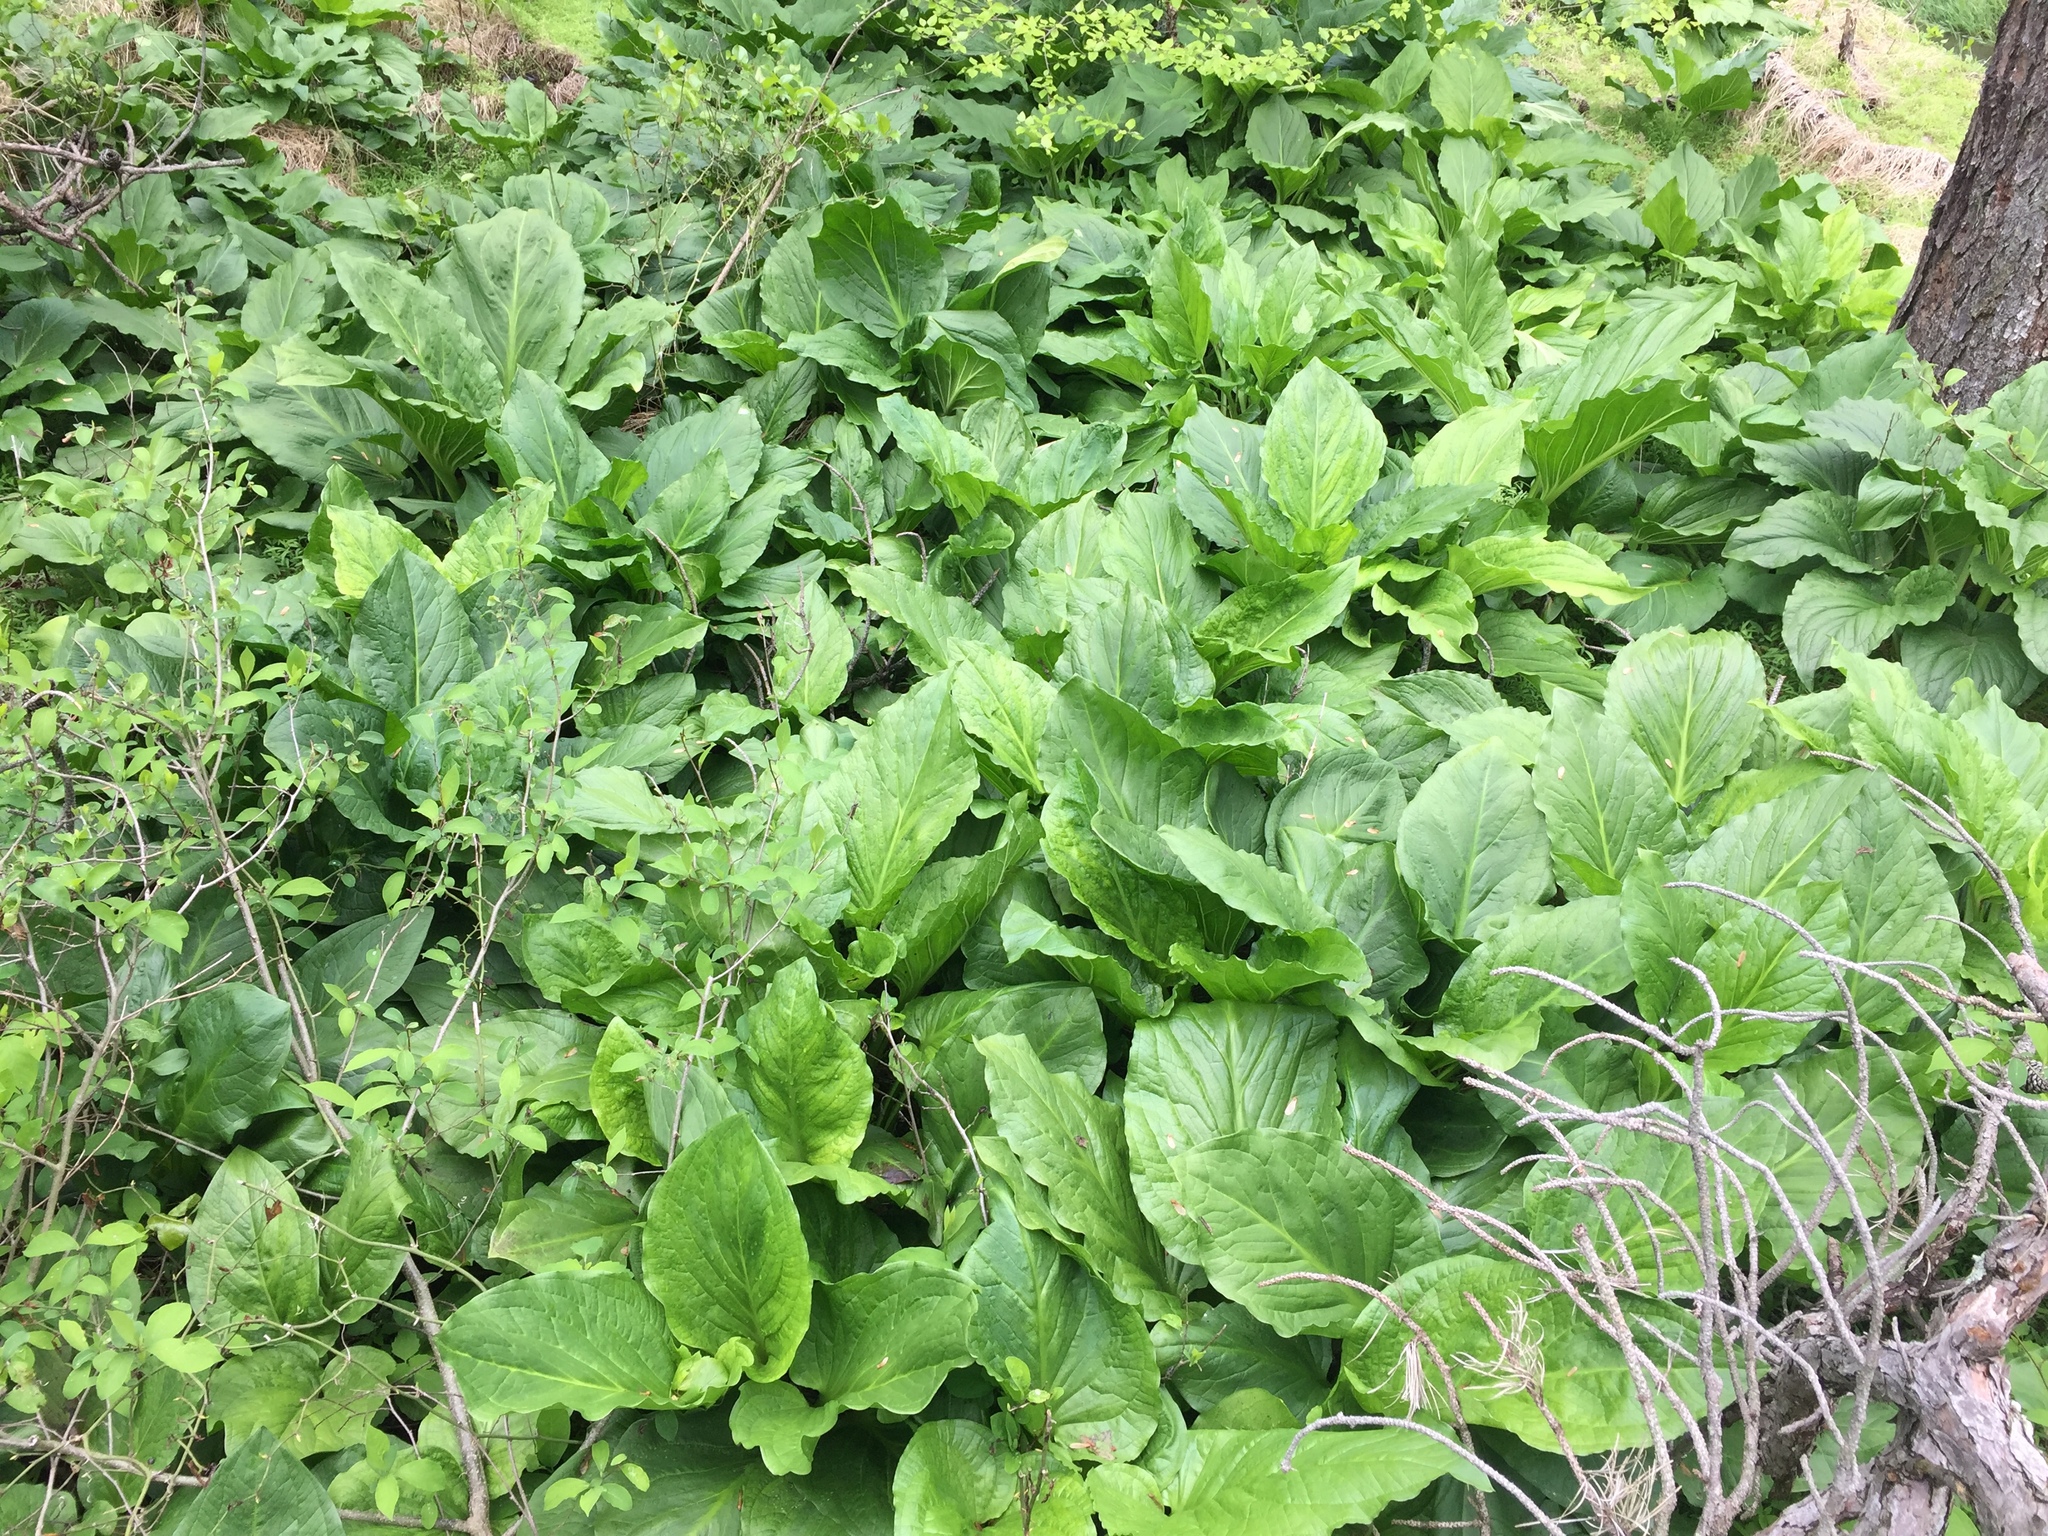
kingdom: Plantae
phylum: Tracheophyta
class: Liliopsida
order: Alismatales
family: Araceae
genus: Symplocarpus
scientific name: Symplocarpus foetidus
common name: Eastern skunk cabbage
